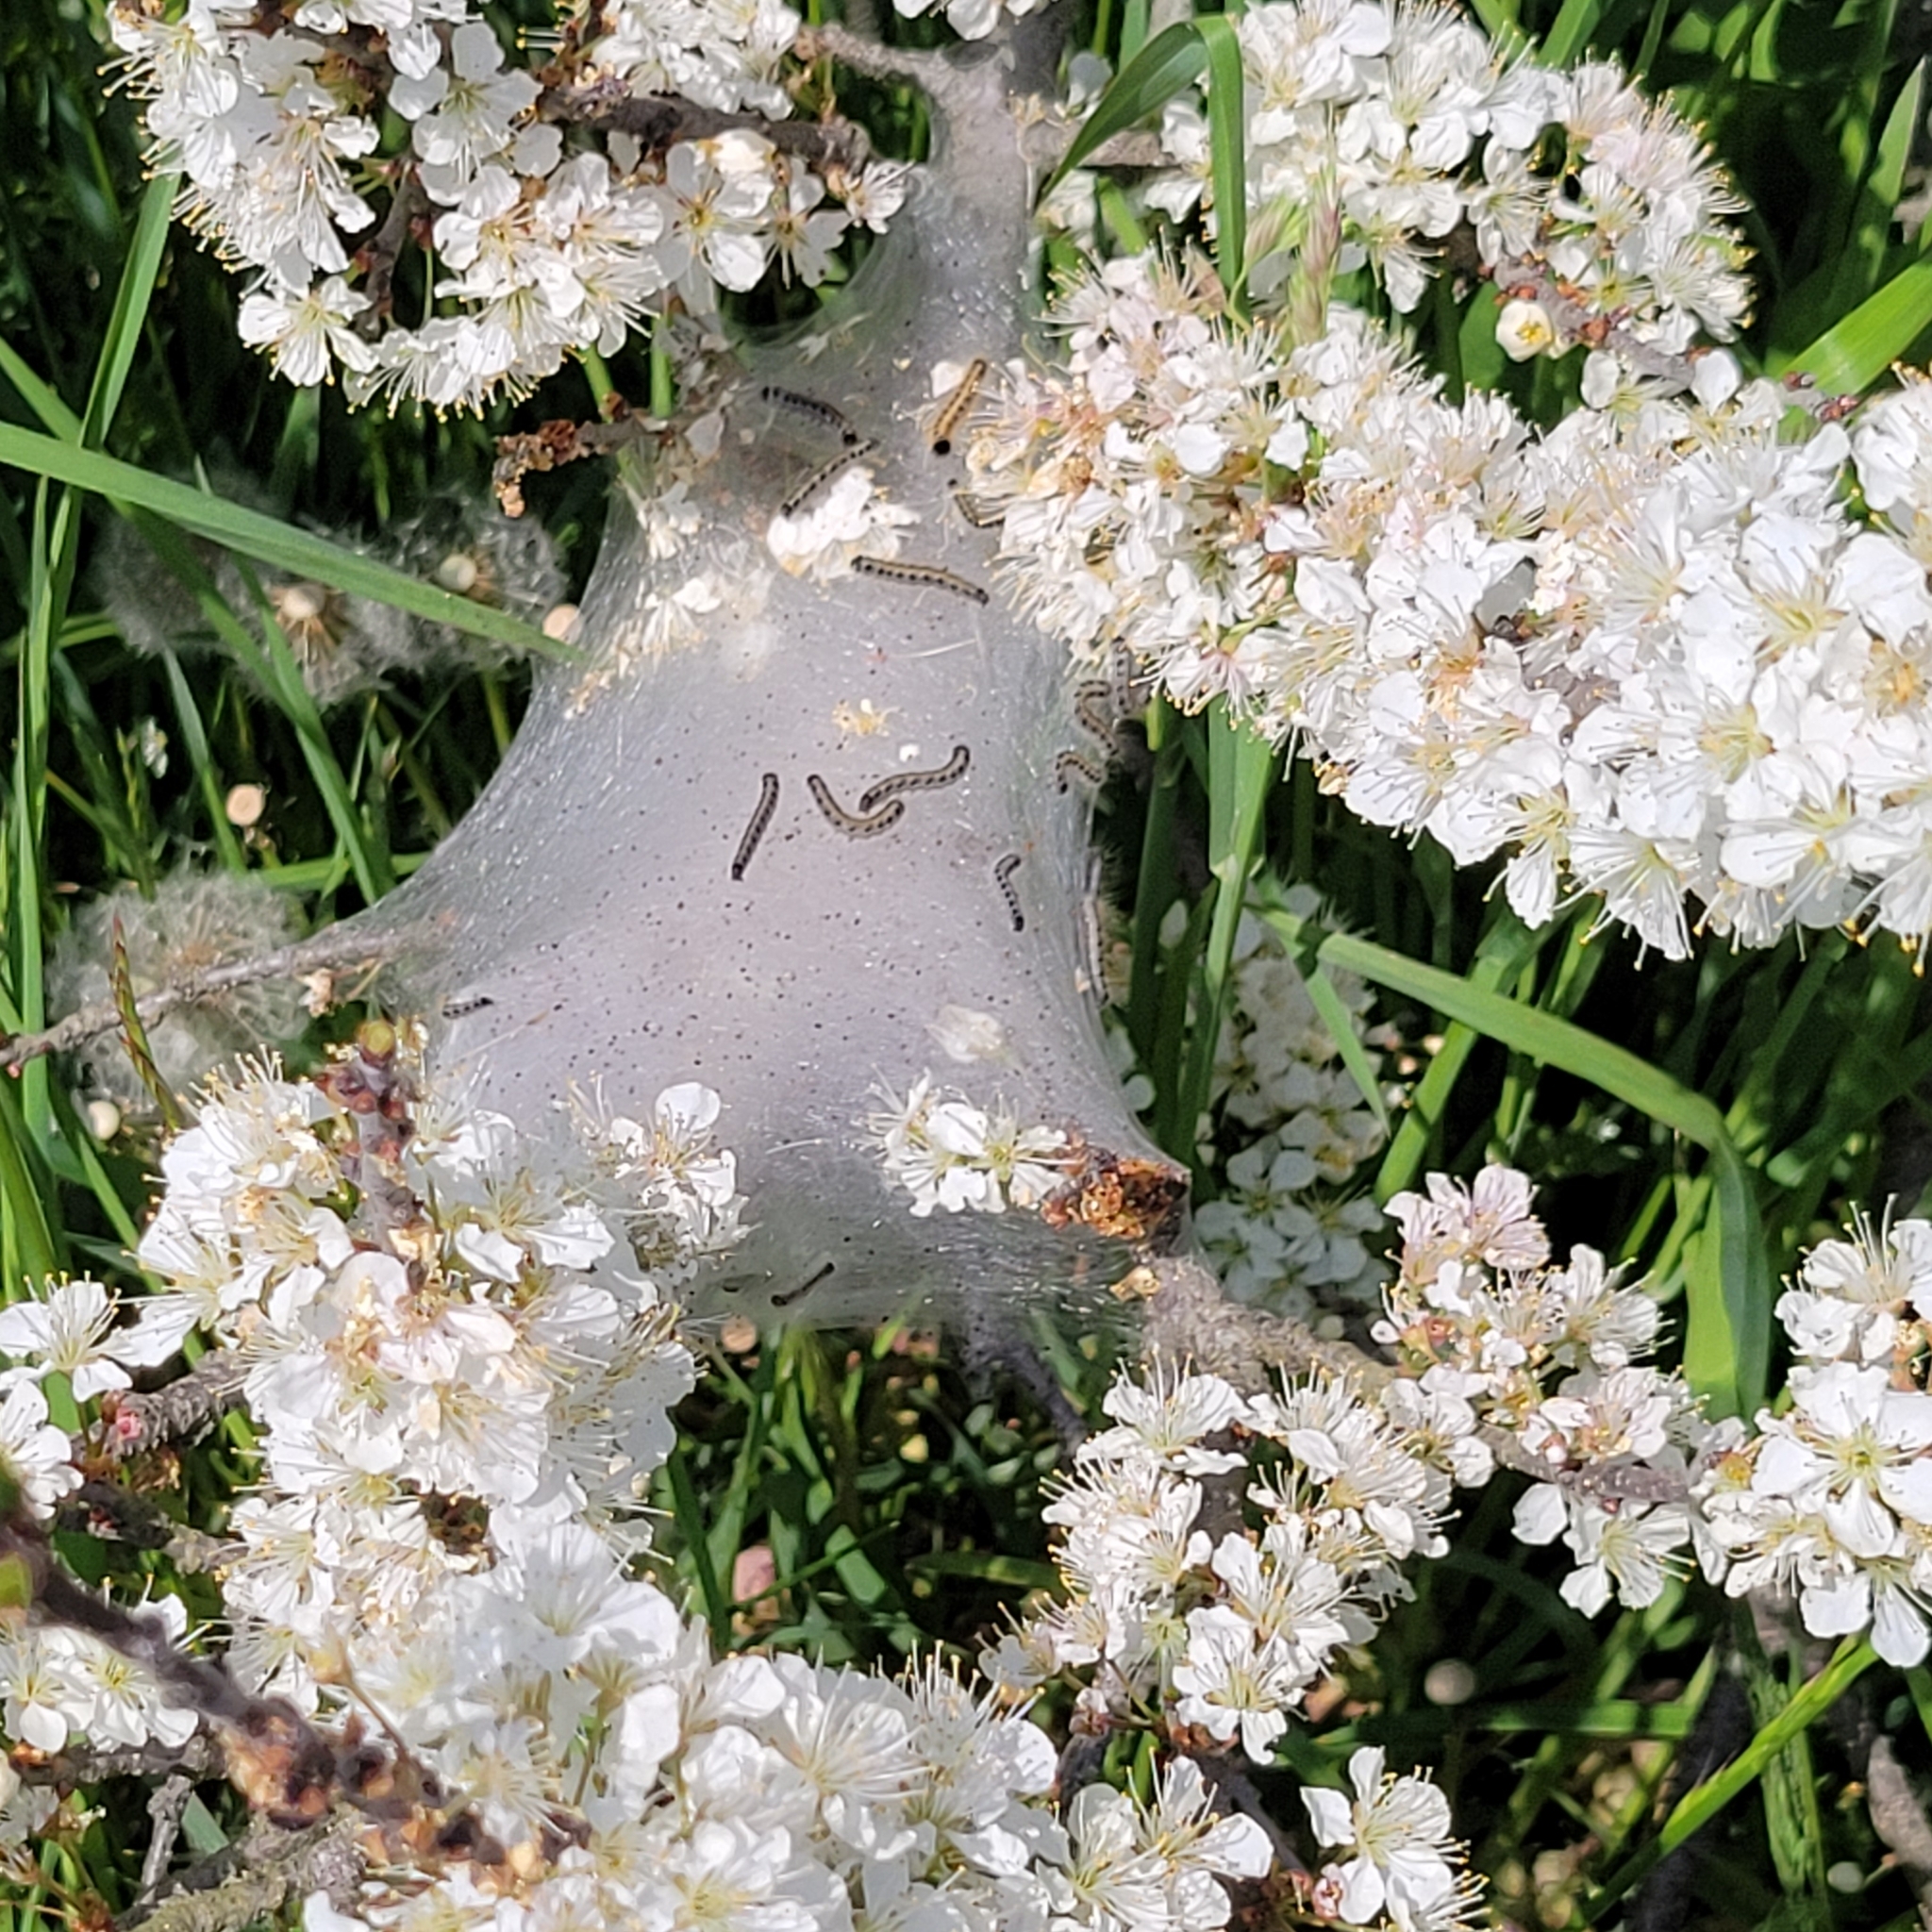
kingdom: Animalia
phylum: Arthropoda
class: Insecta
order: Lepidoptera
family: Lasiocampidae
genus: Malacosoma
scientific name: Malacosoma americana
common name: Eastern tent caterpillar moth
